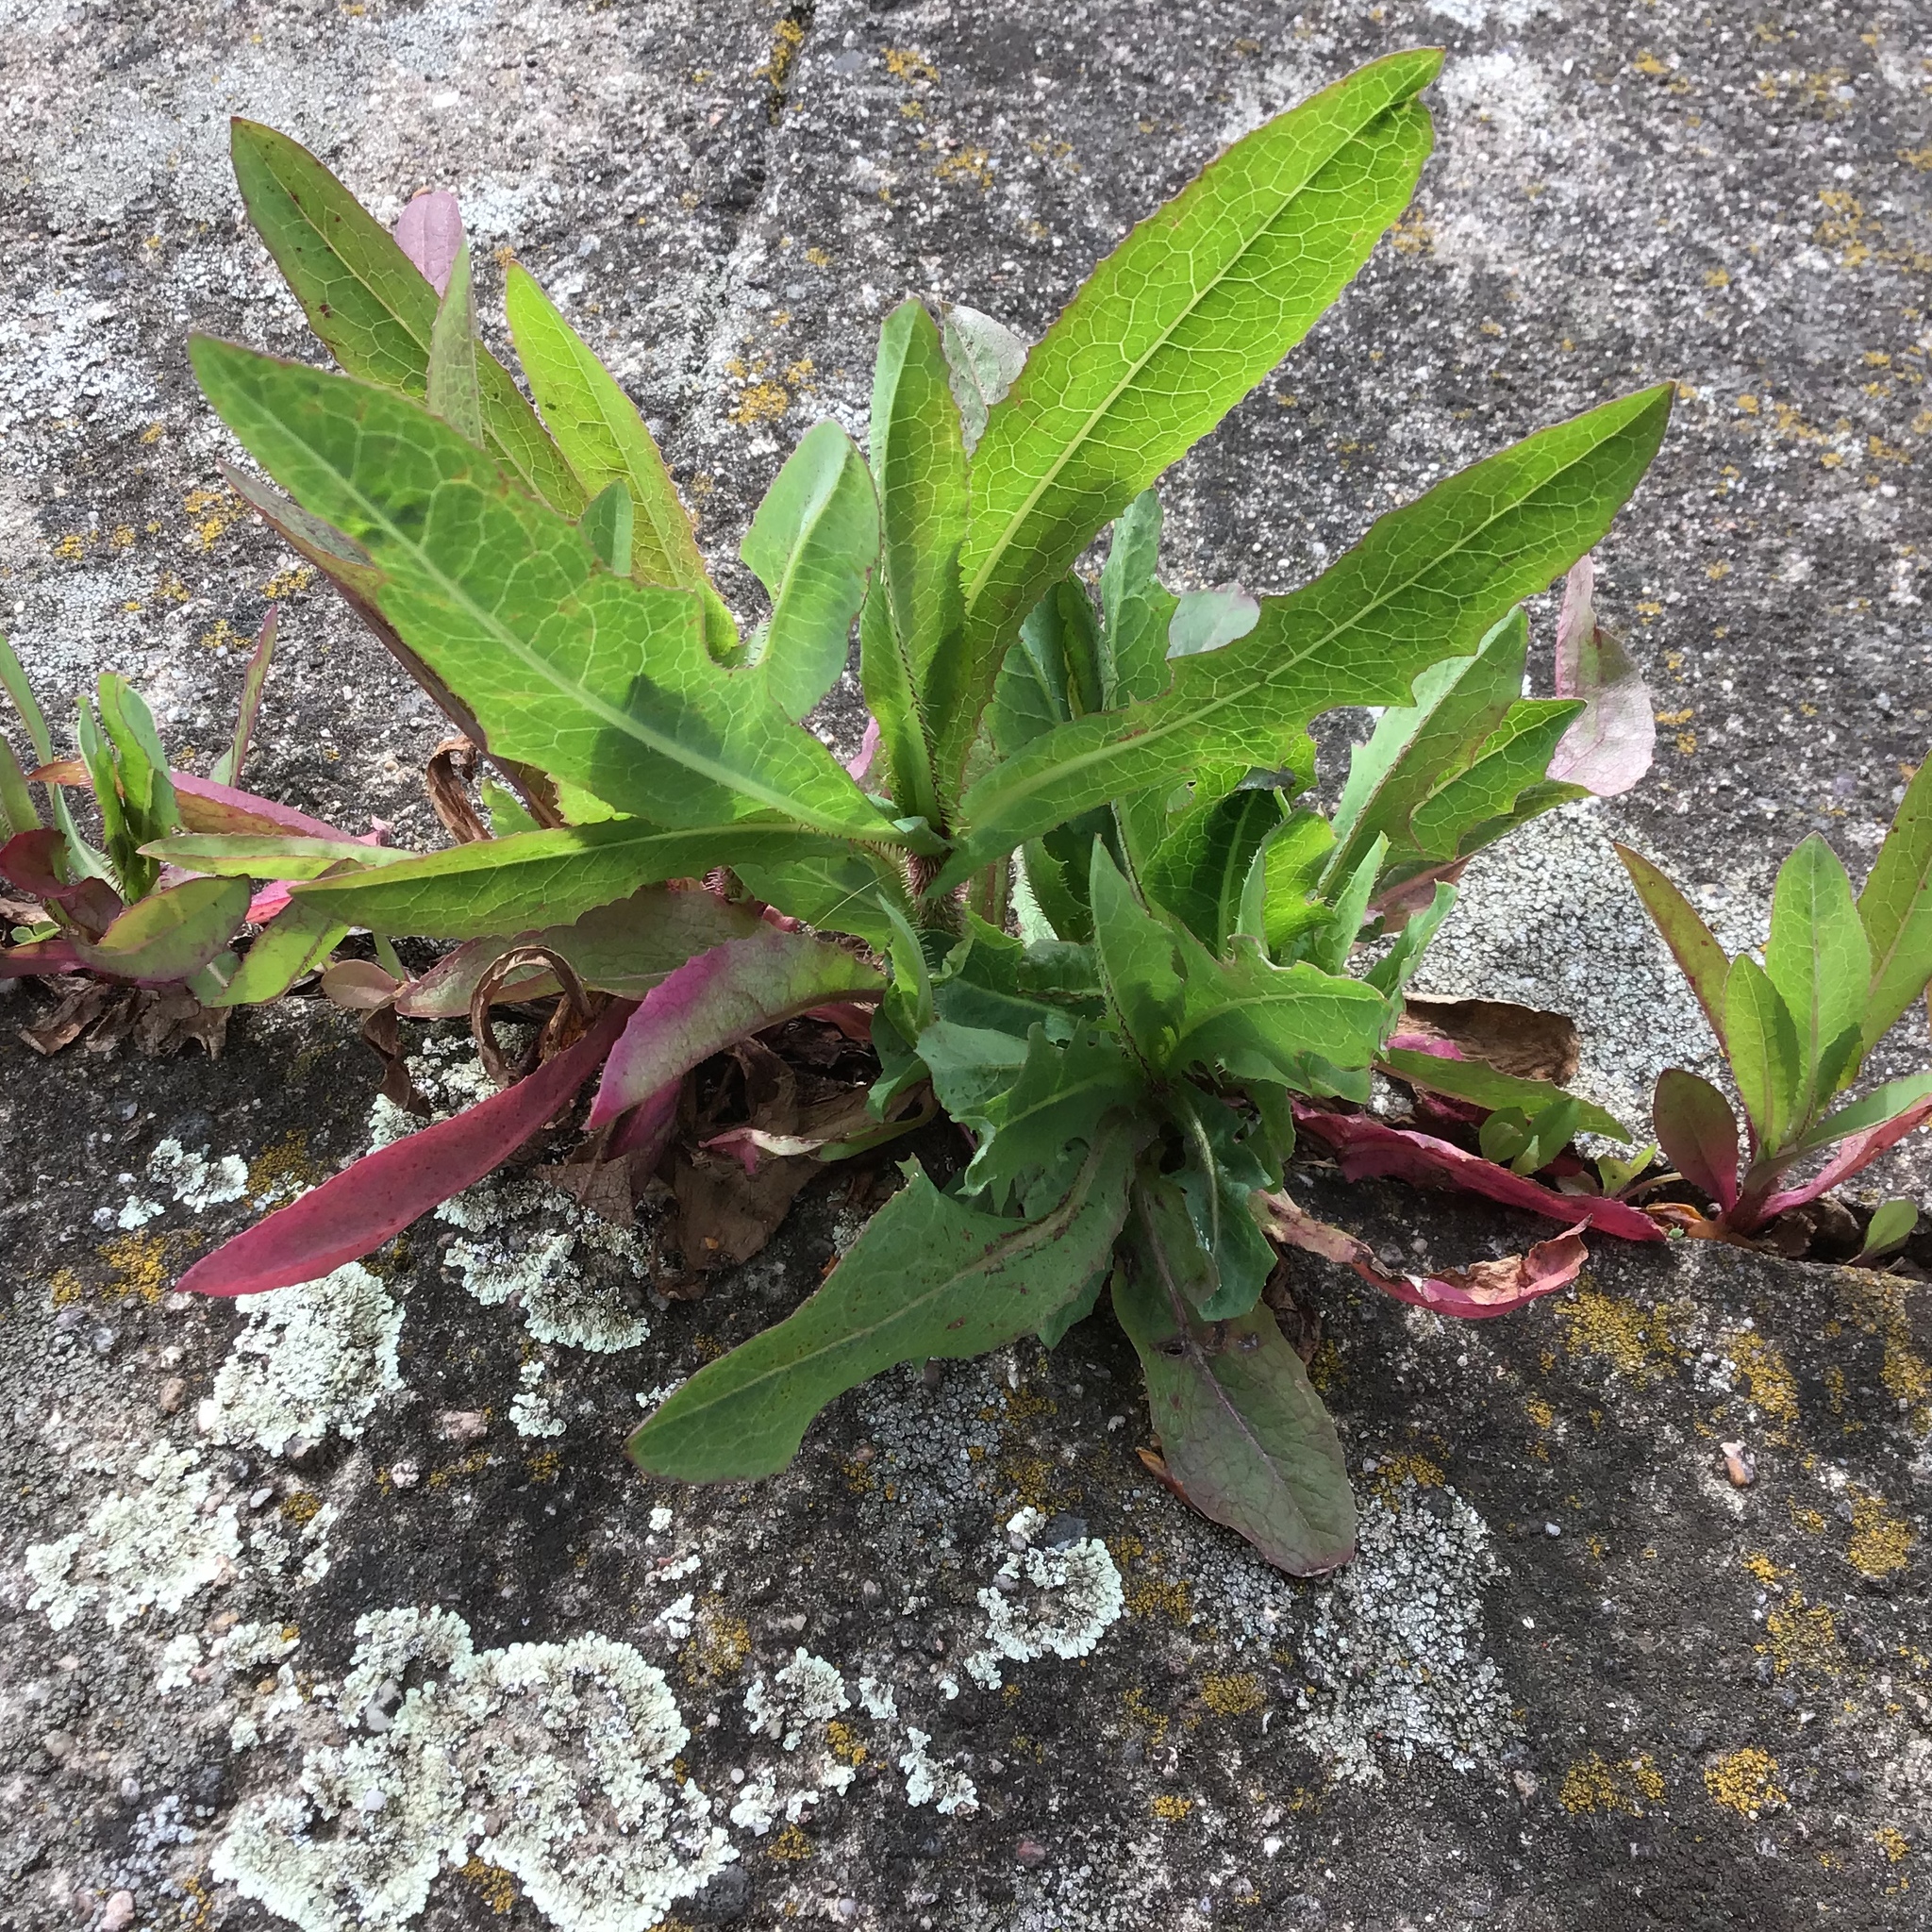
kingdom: Plantae
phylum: Tracheophyta
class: Magnoliopsida
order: Asterales
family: Asteraceae
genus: Lactuca
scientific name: Lactuca serriola
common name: Prickly lettuce
